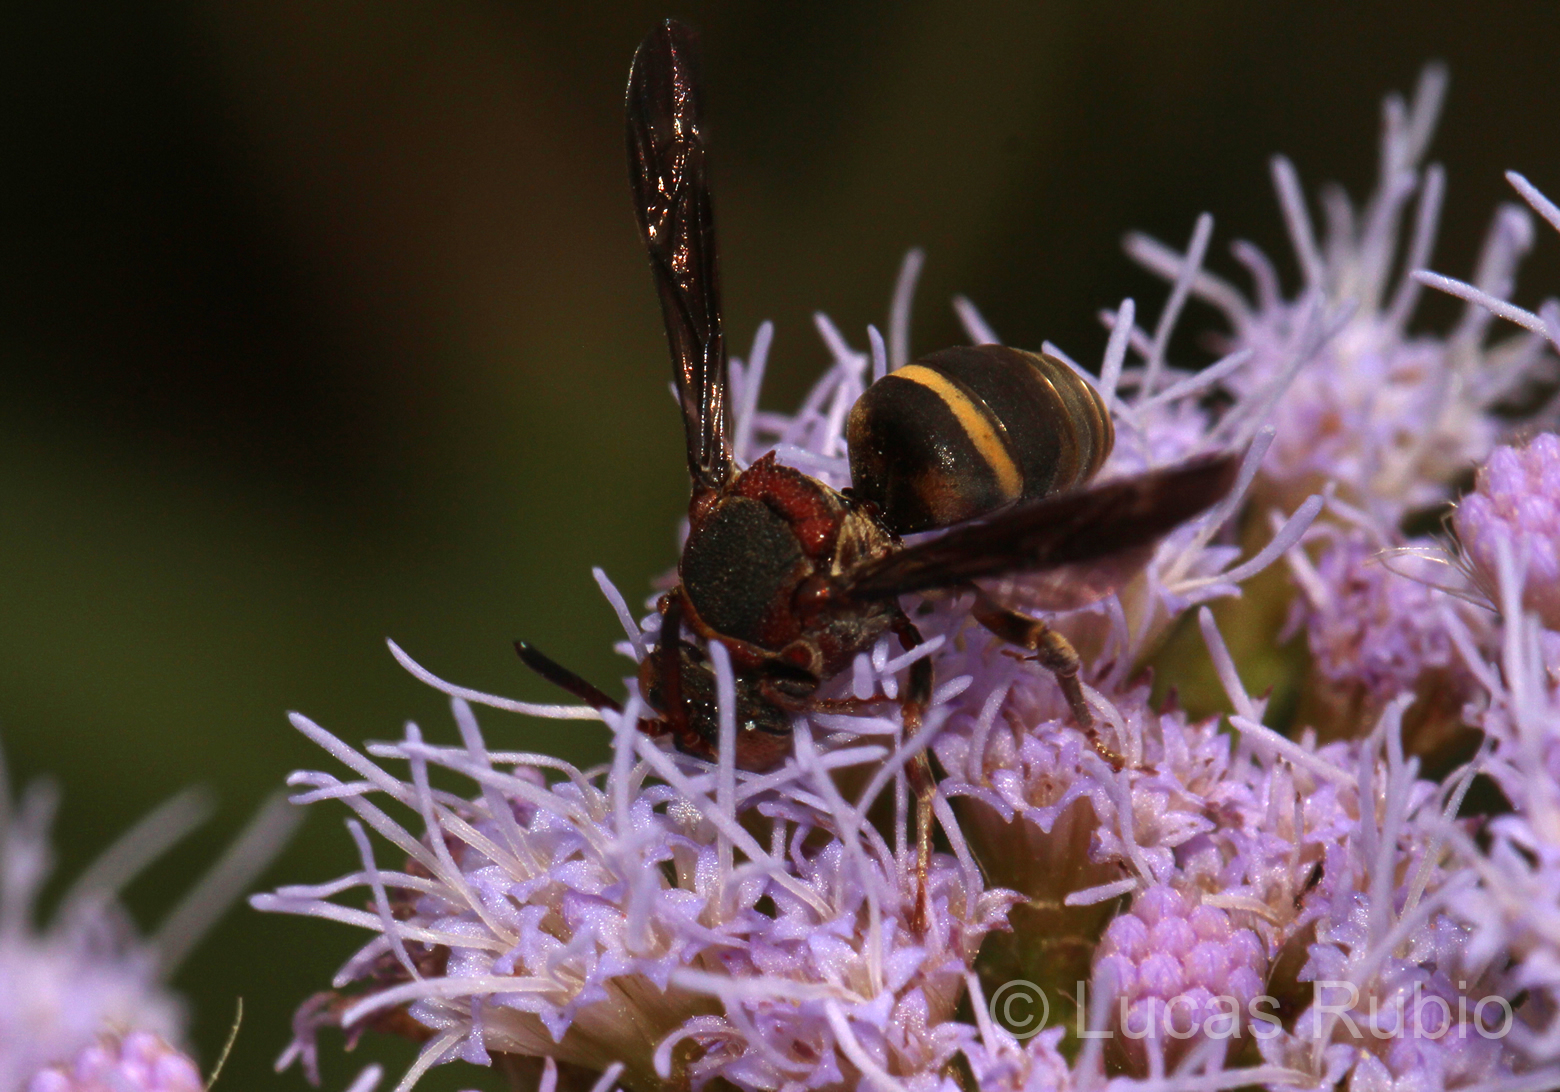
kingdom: Animalia
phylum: Arthropoda
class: Insecta
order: Hymenoptera
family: Apidae
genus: Epeolus
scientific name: Epeolus variolosus
